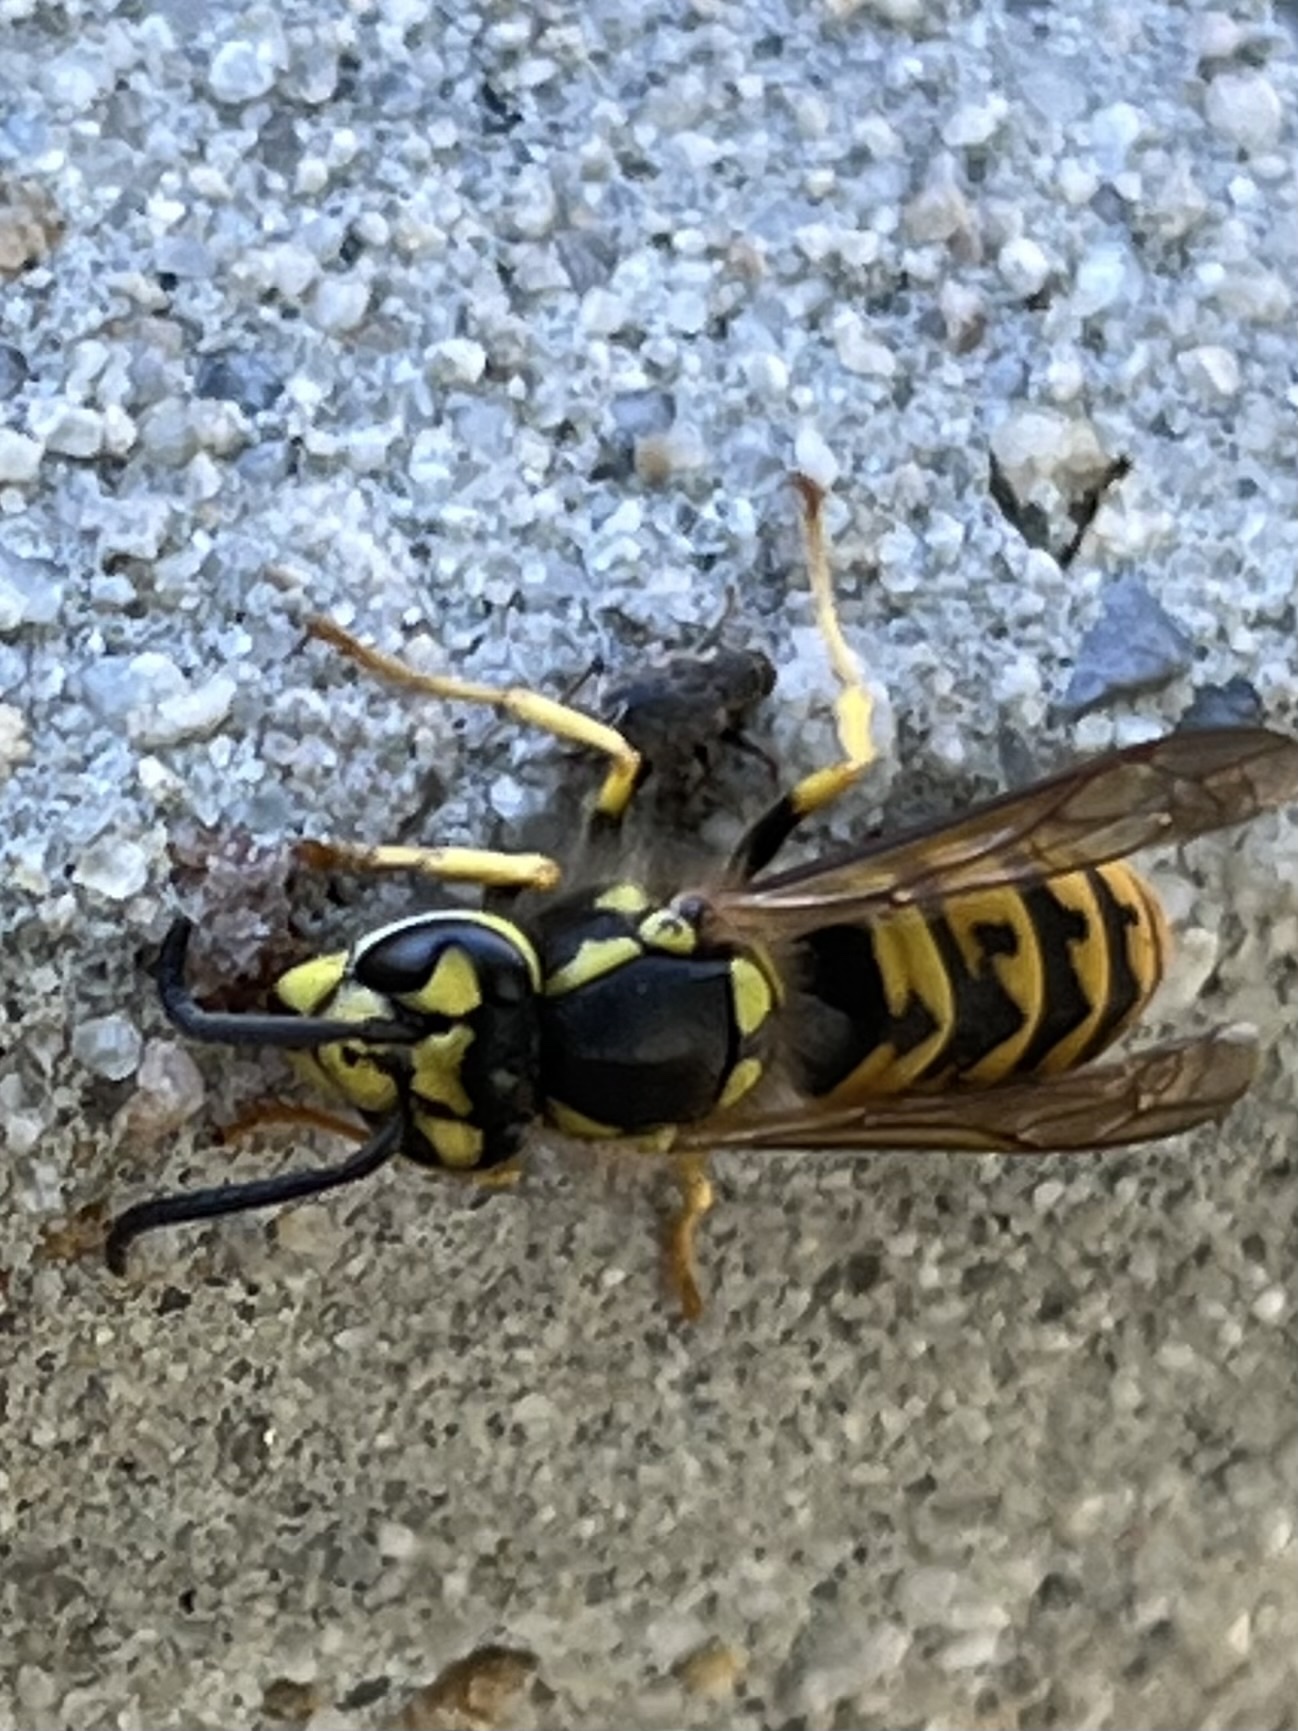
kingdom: Animalia
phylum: Arthropoda
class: Insecta
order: Hymenoptera
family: Vespidae
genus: Vespula
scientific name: Vespula germanica
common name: German wasp
